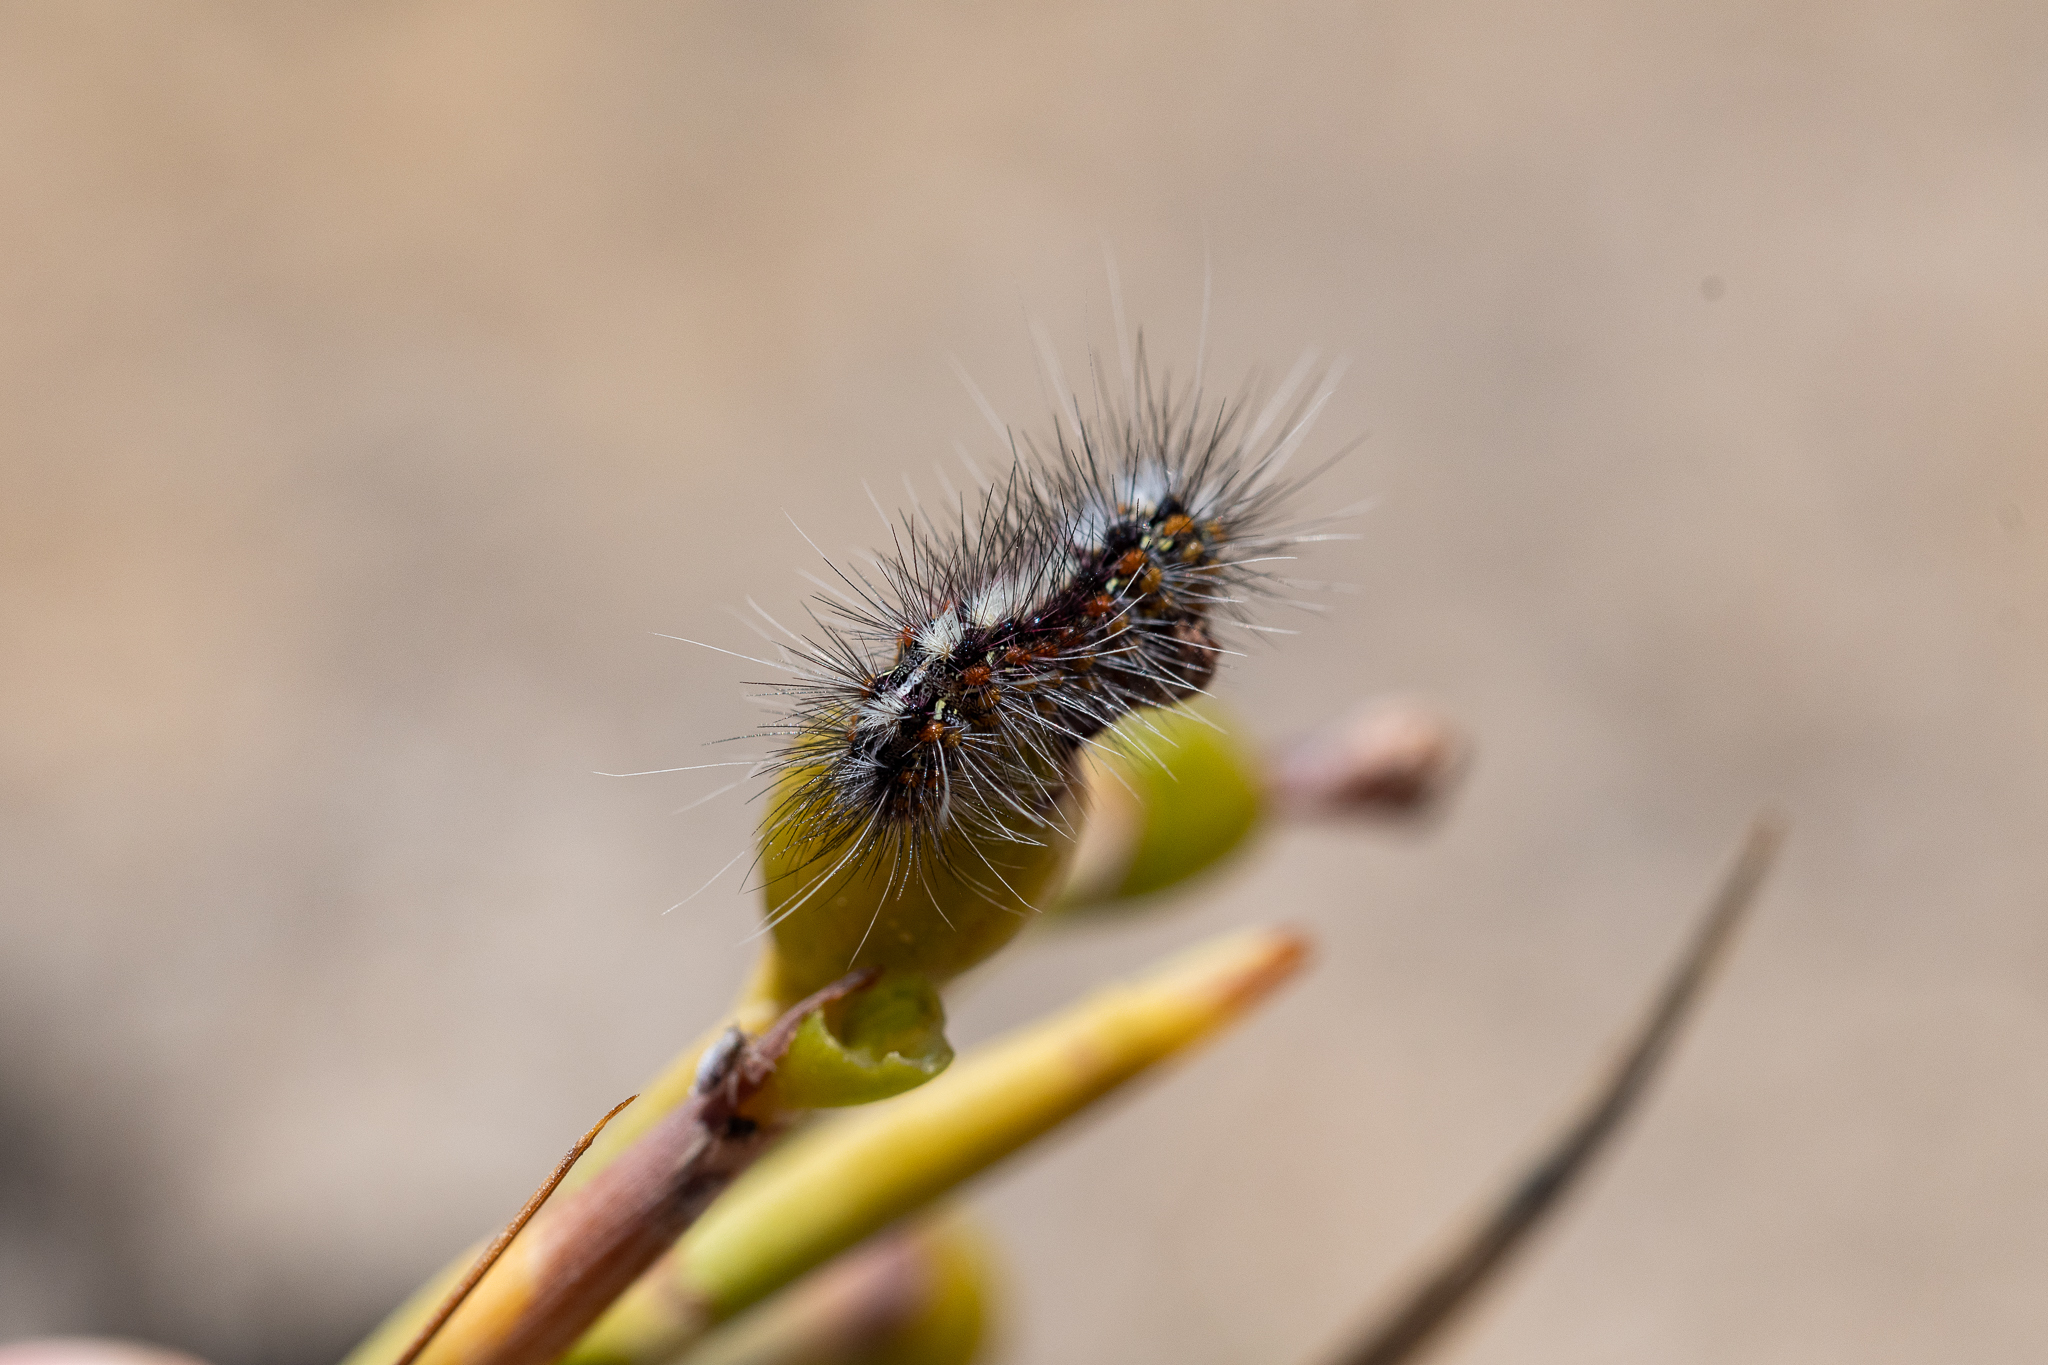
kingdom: Animalia
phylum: Arthropoda
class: Insecta
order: Lepidoptera
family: Erebidae
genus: Paralacydes
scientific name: Paralacydes vocula
